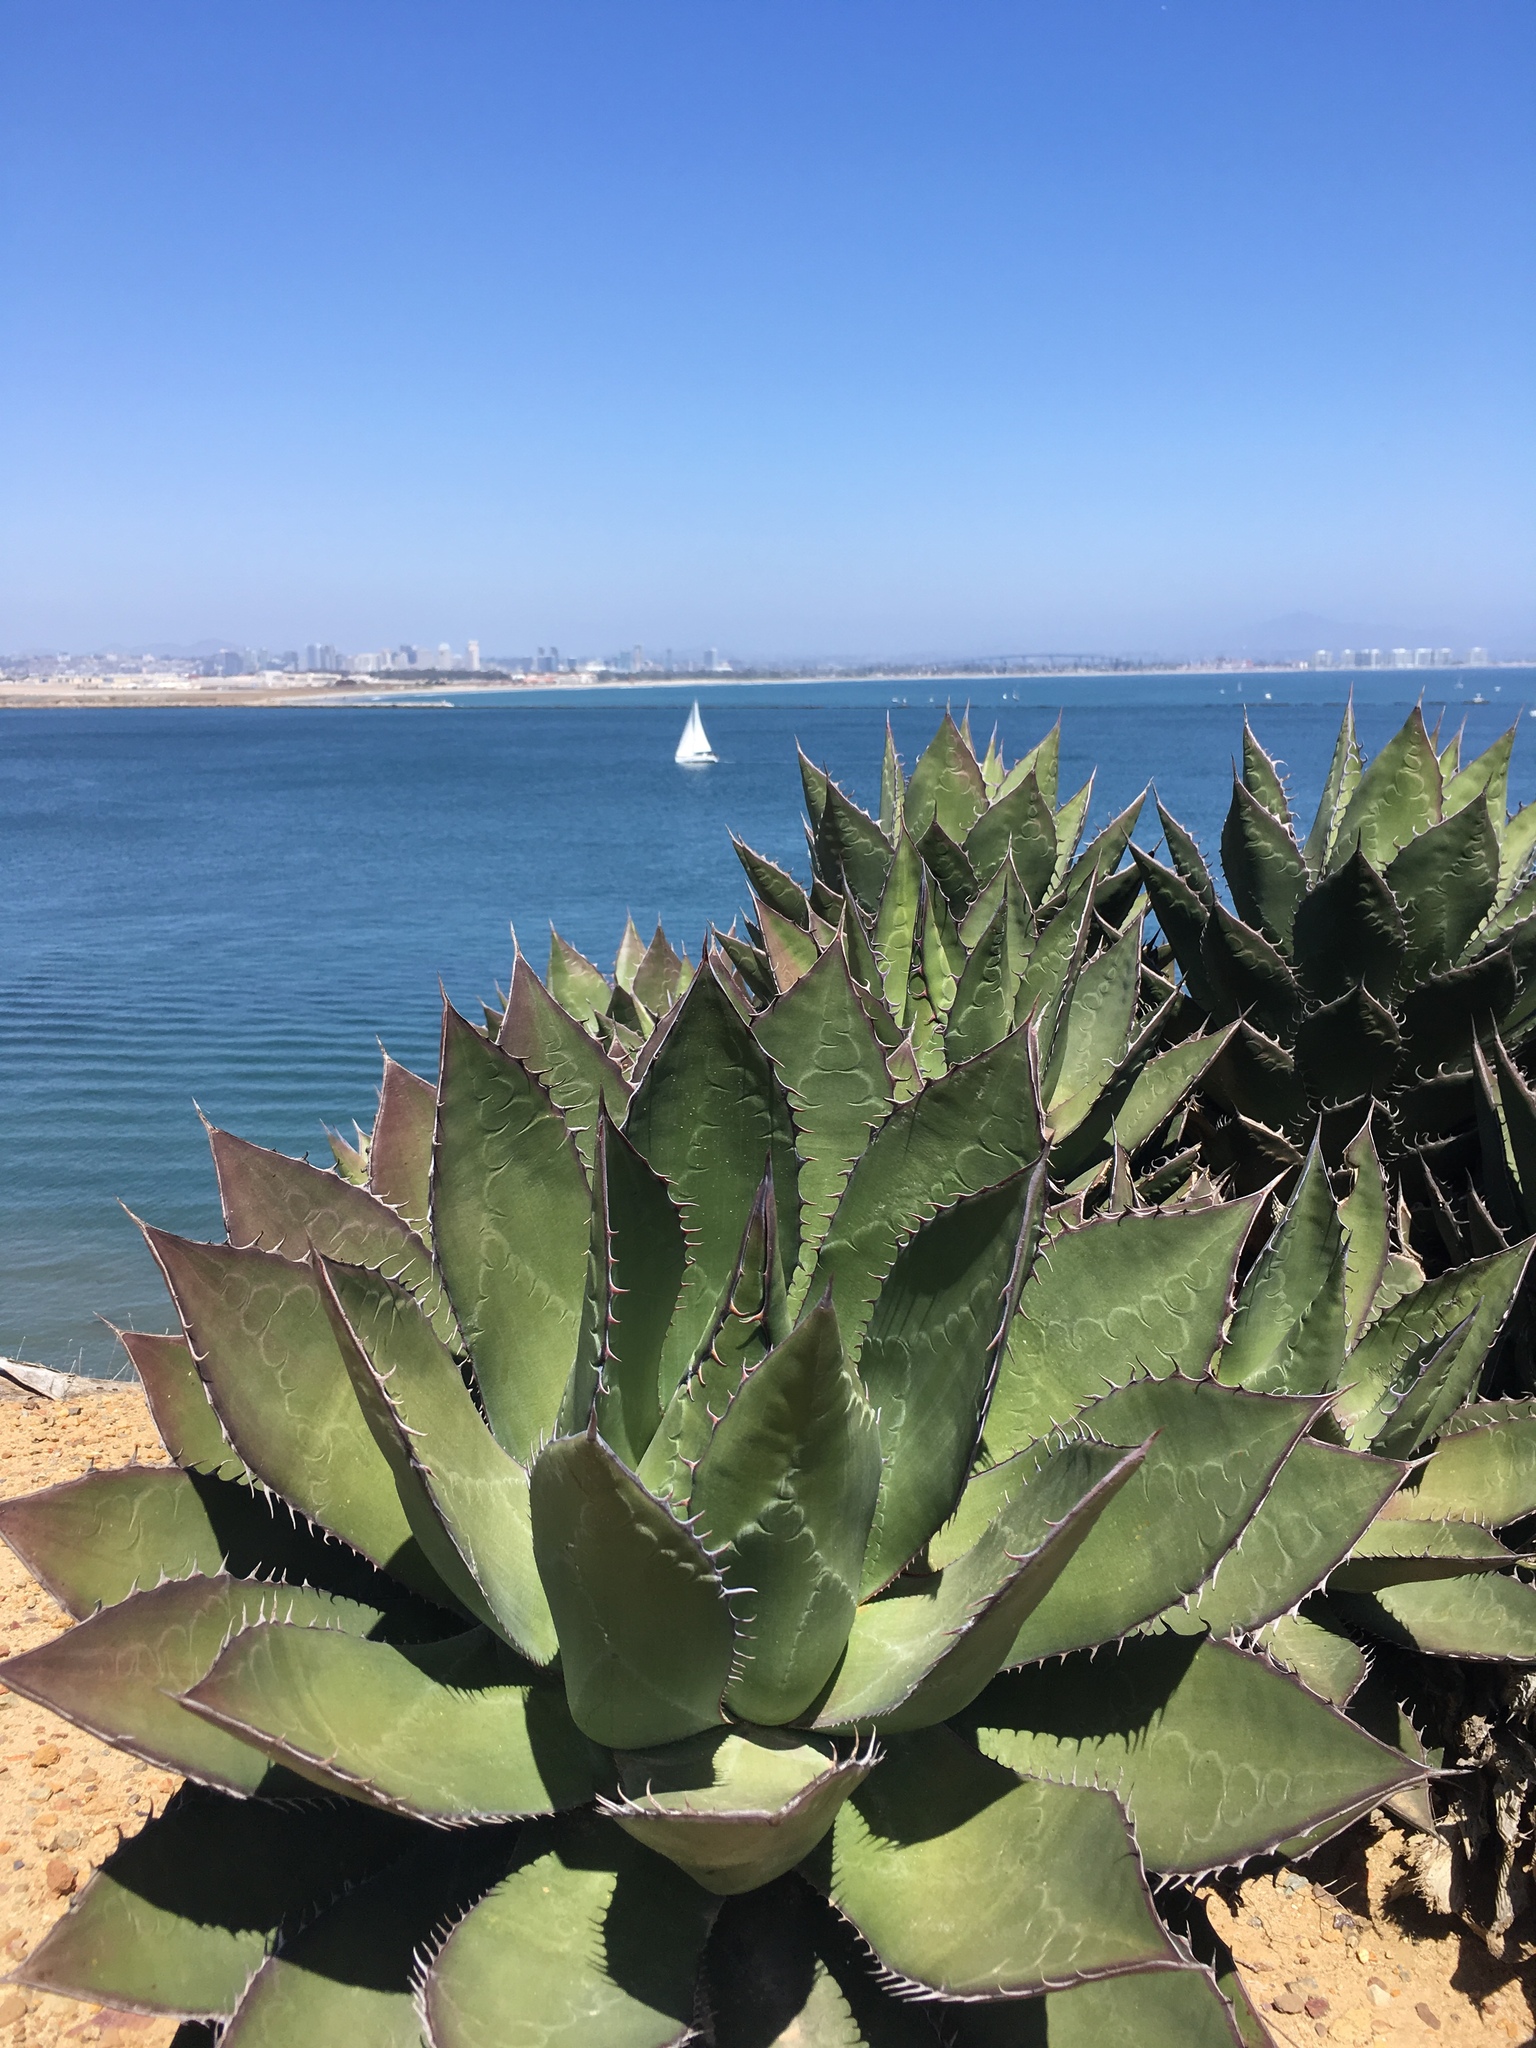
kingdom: Plantae
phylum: Tracheophyta
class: Liliopsida
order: Asparagales
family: Asparagaceae
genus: Agave
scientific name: Agave shawii
